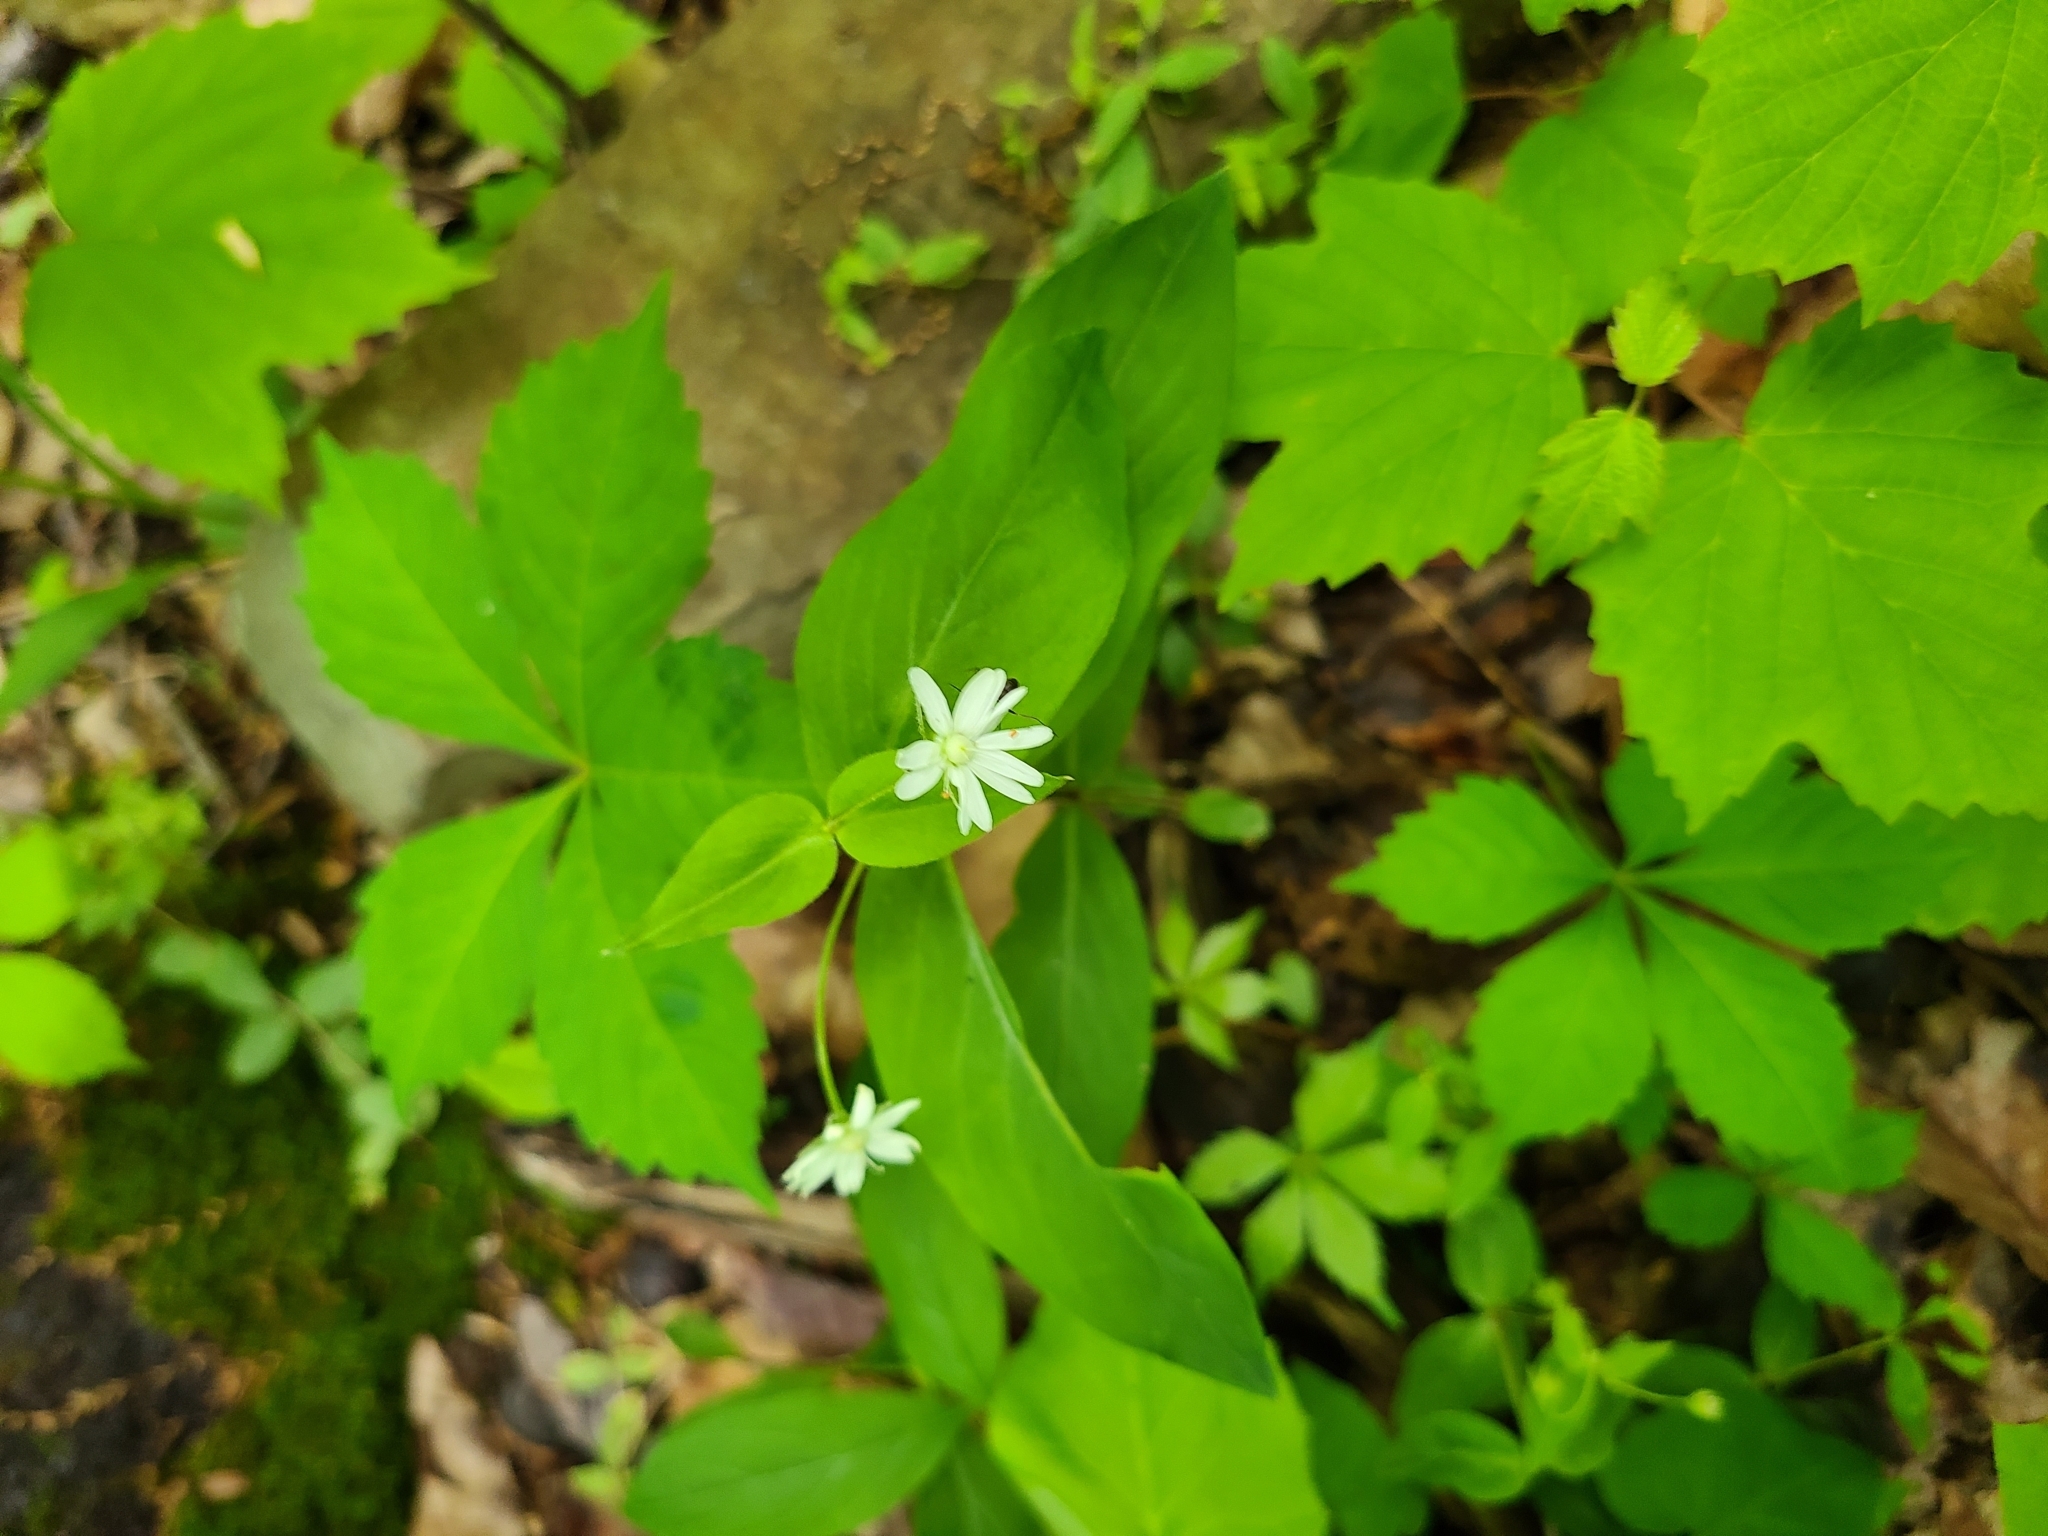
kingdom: Plantae
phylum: Tracheophyta
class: Magnoliopsida
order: Caryophyllales
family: Caryophyllaceae
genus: Stellaria
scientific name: Stellaria pubera
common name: Star chickweed
